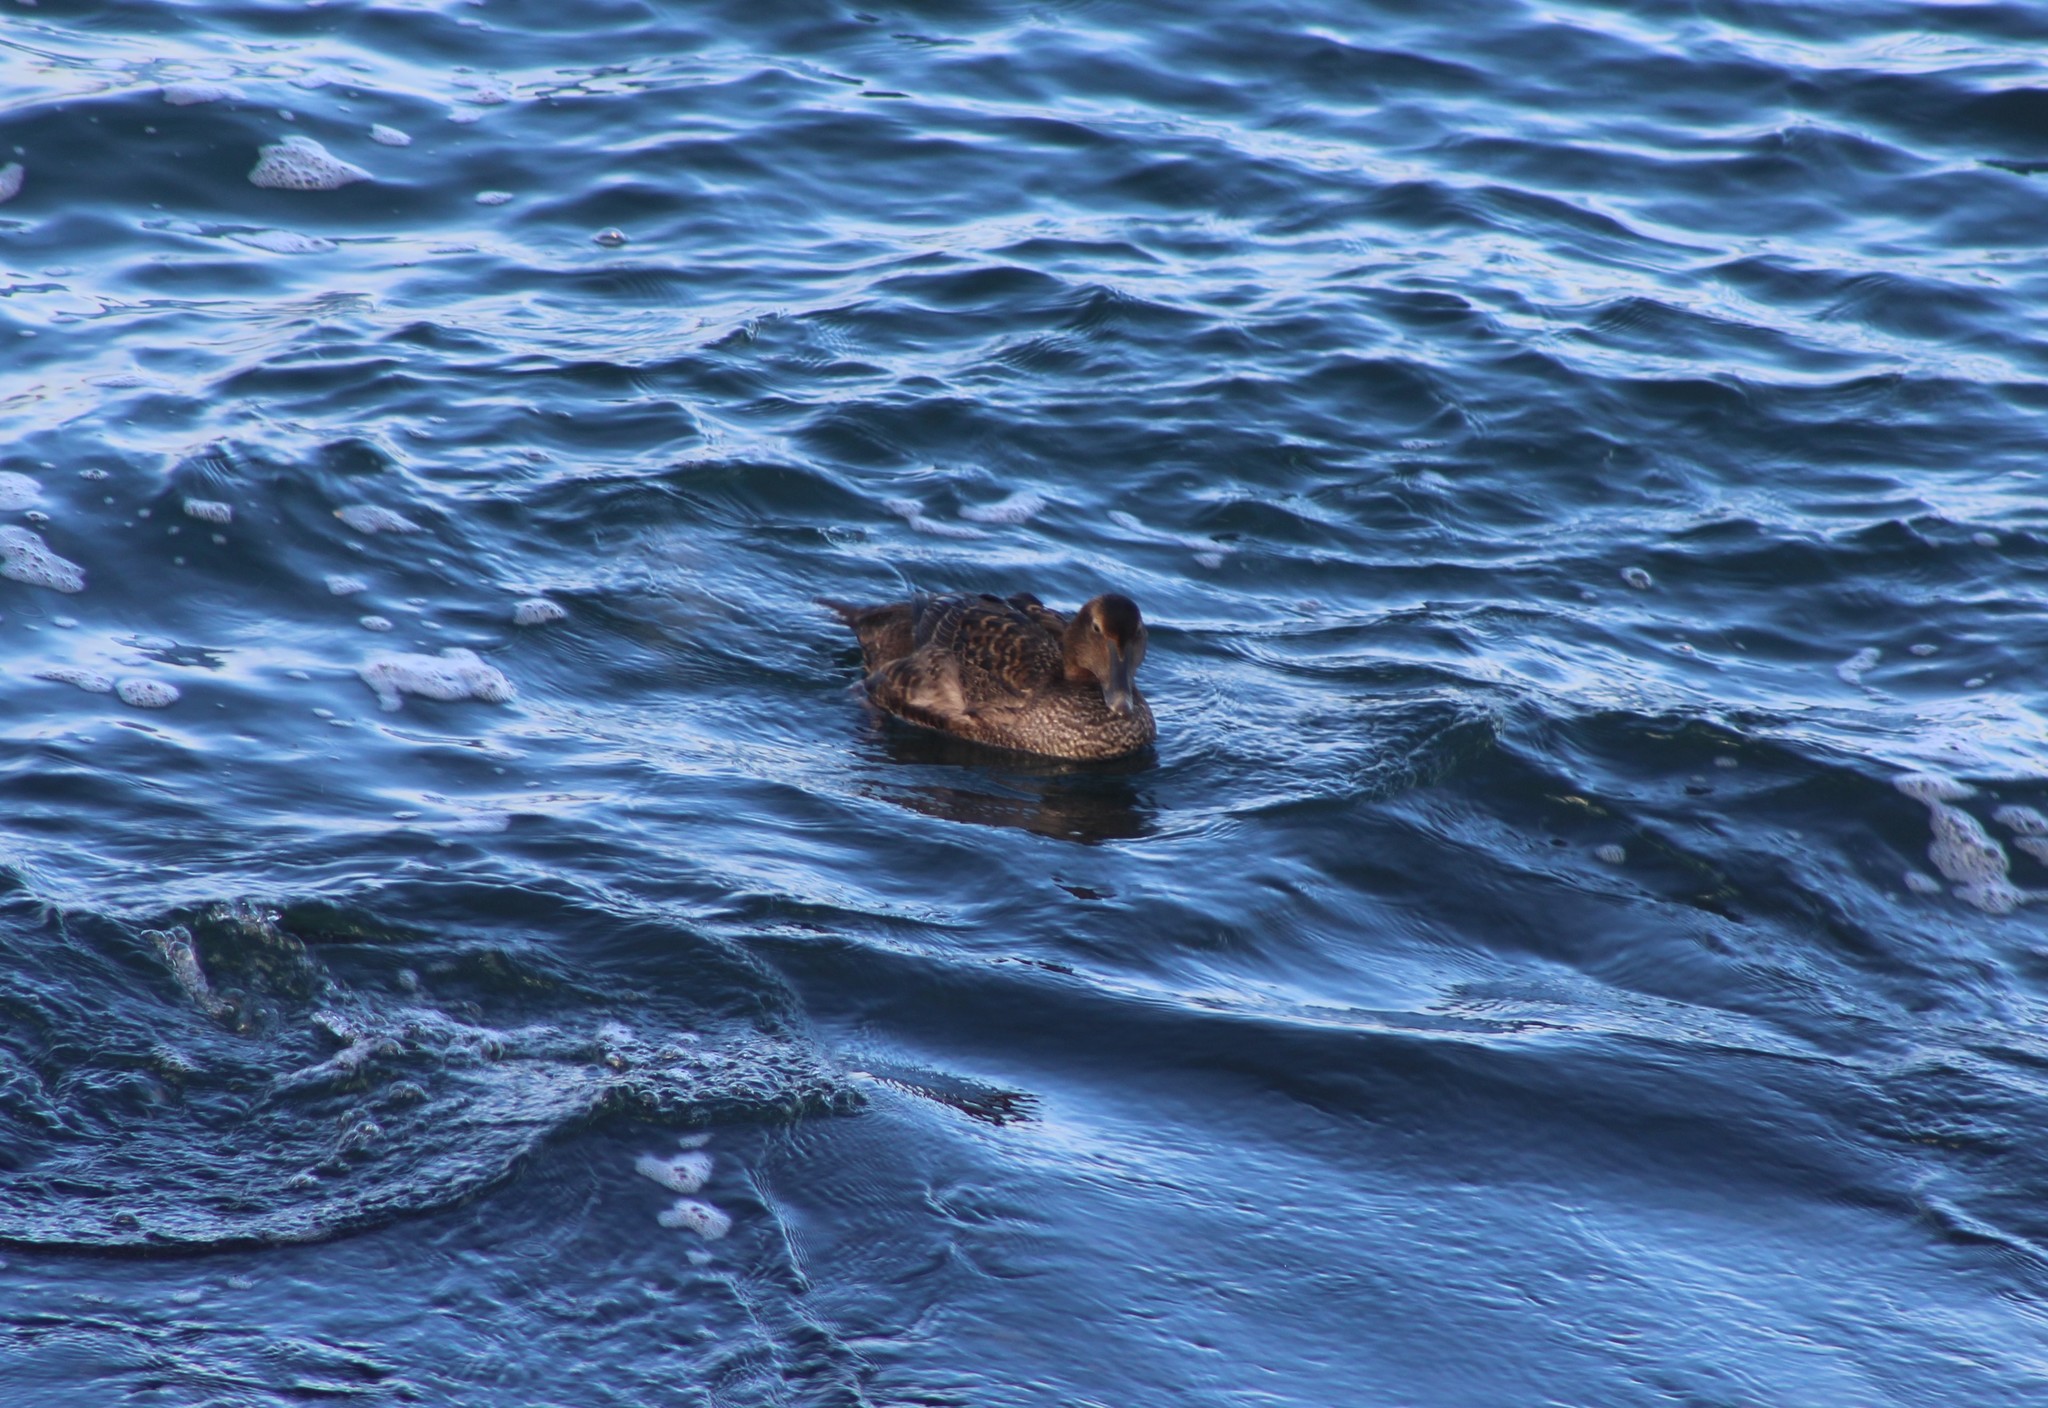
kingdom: Animalia
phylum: Chordata
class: Aves
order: Anseriformes
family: Anatidae
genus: Somateria
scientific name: Somateria mollissima
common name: Common eider
